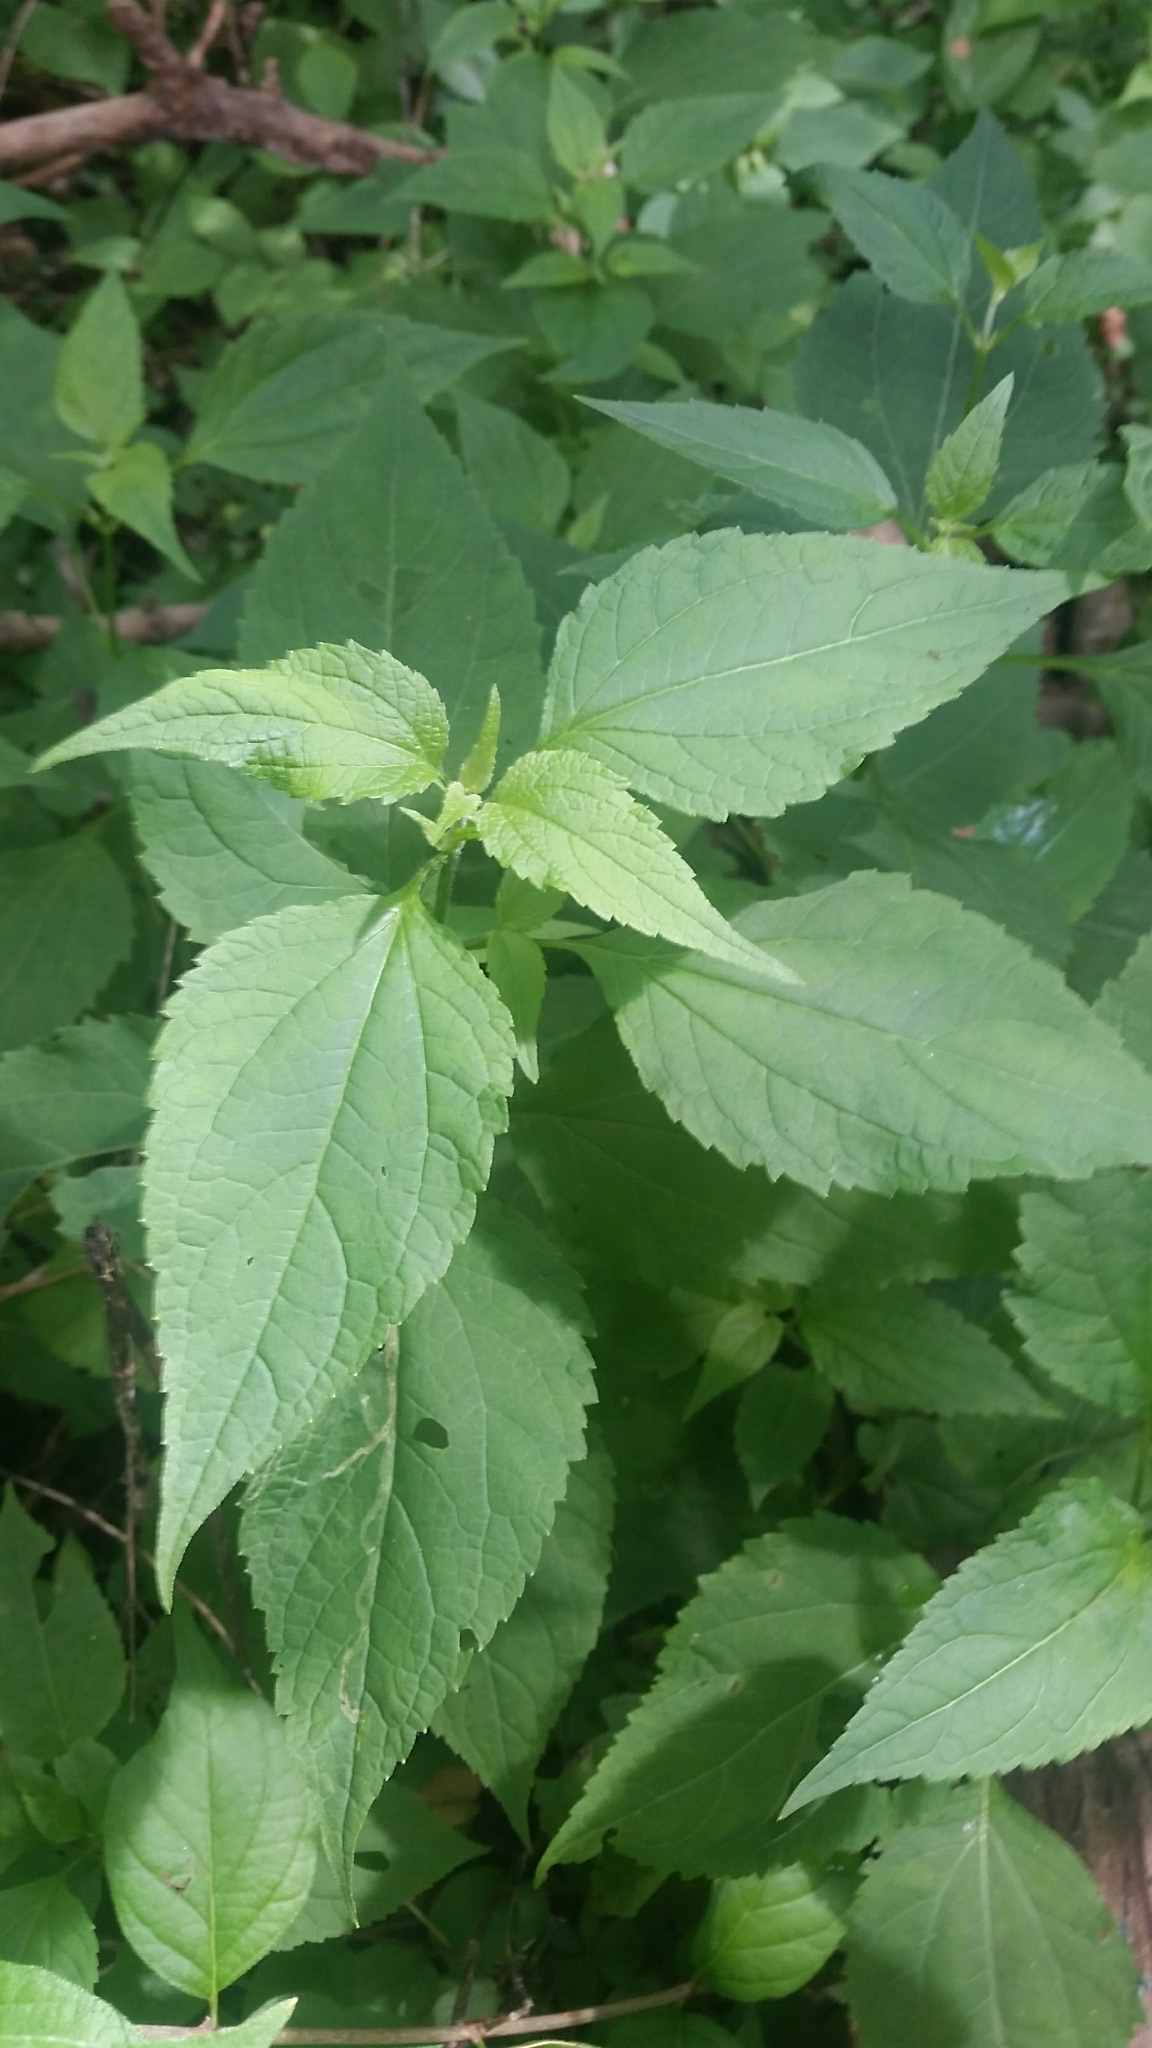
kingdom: Plantae
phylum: Tracheophyta
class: Magnoliopsida
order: Asterales
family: Asteraceae
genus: Ageratina
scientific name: Ageratina altissima
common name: White snakeroot
